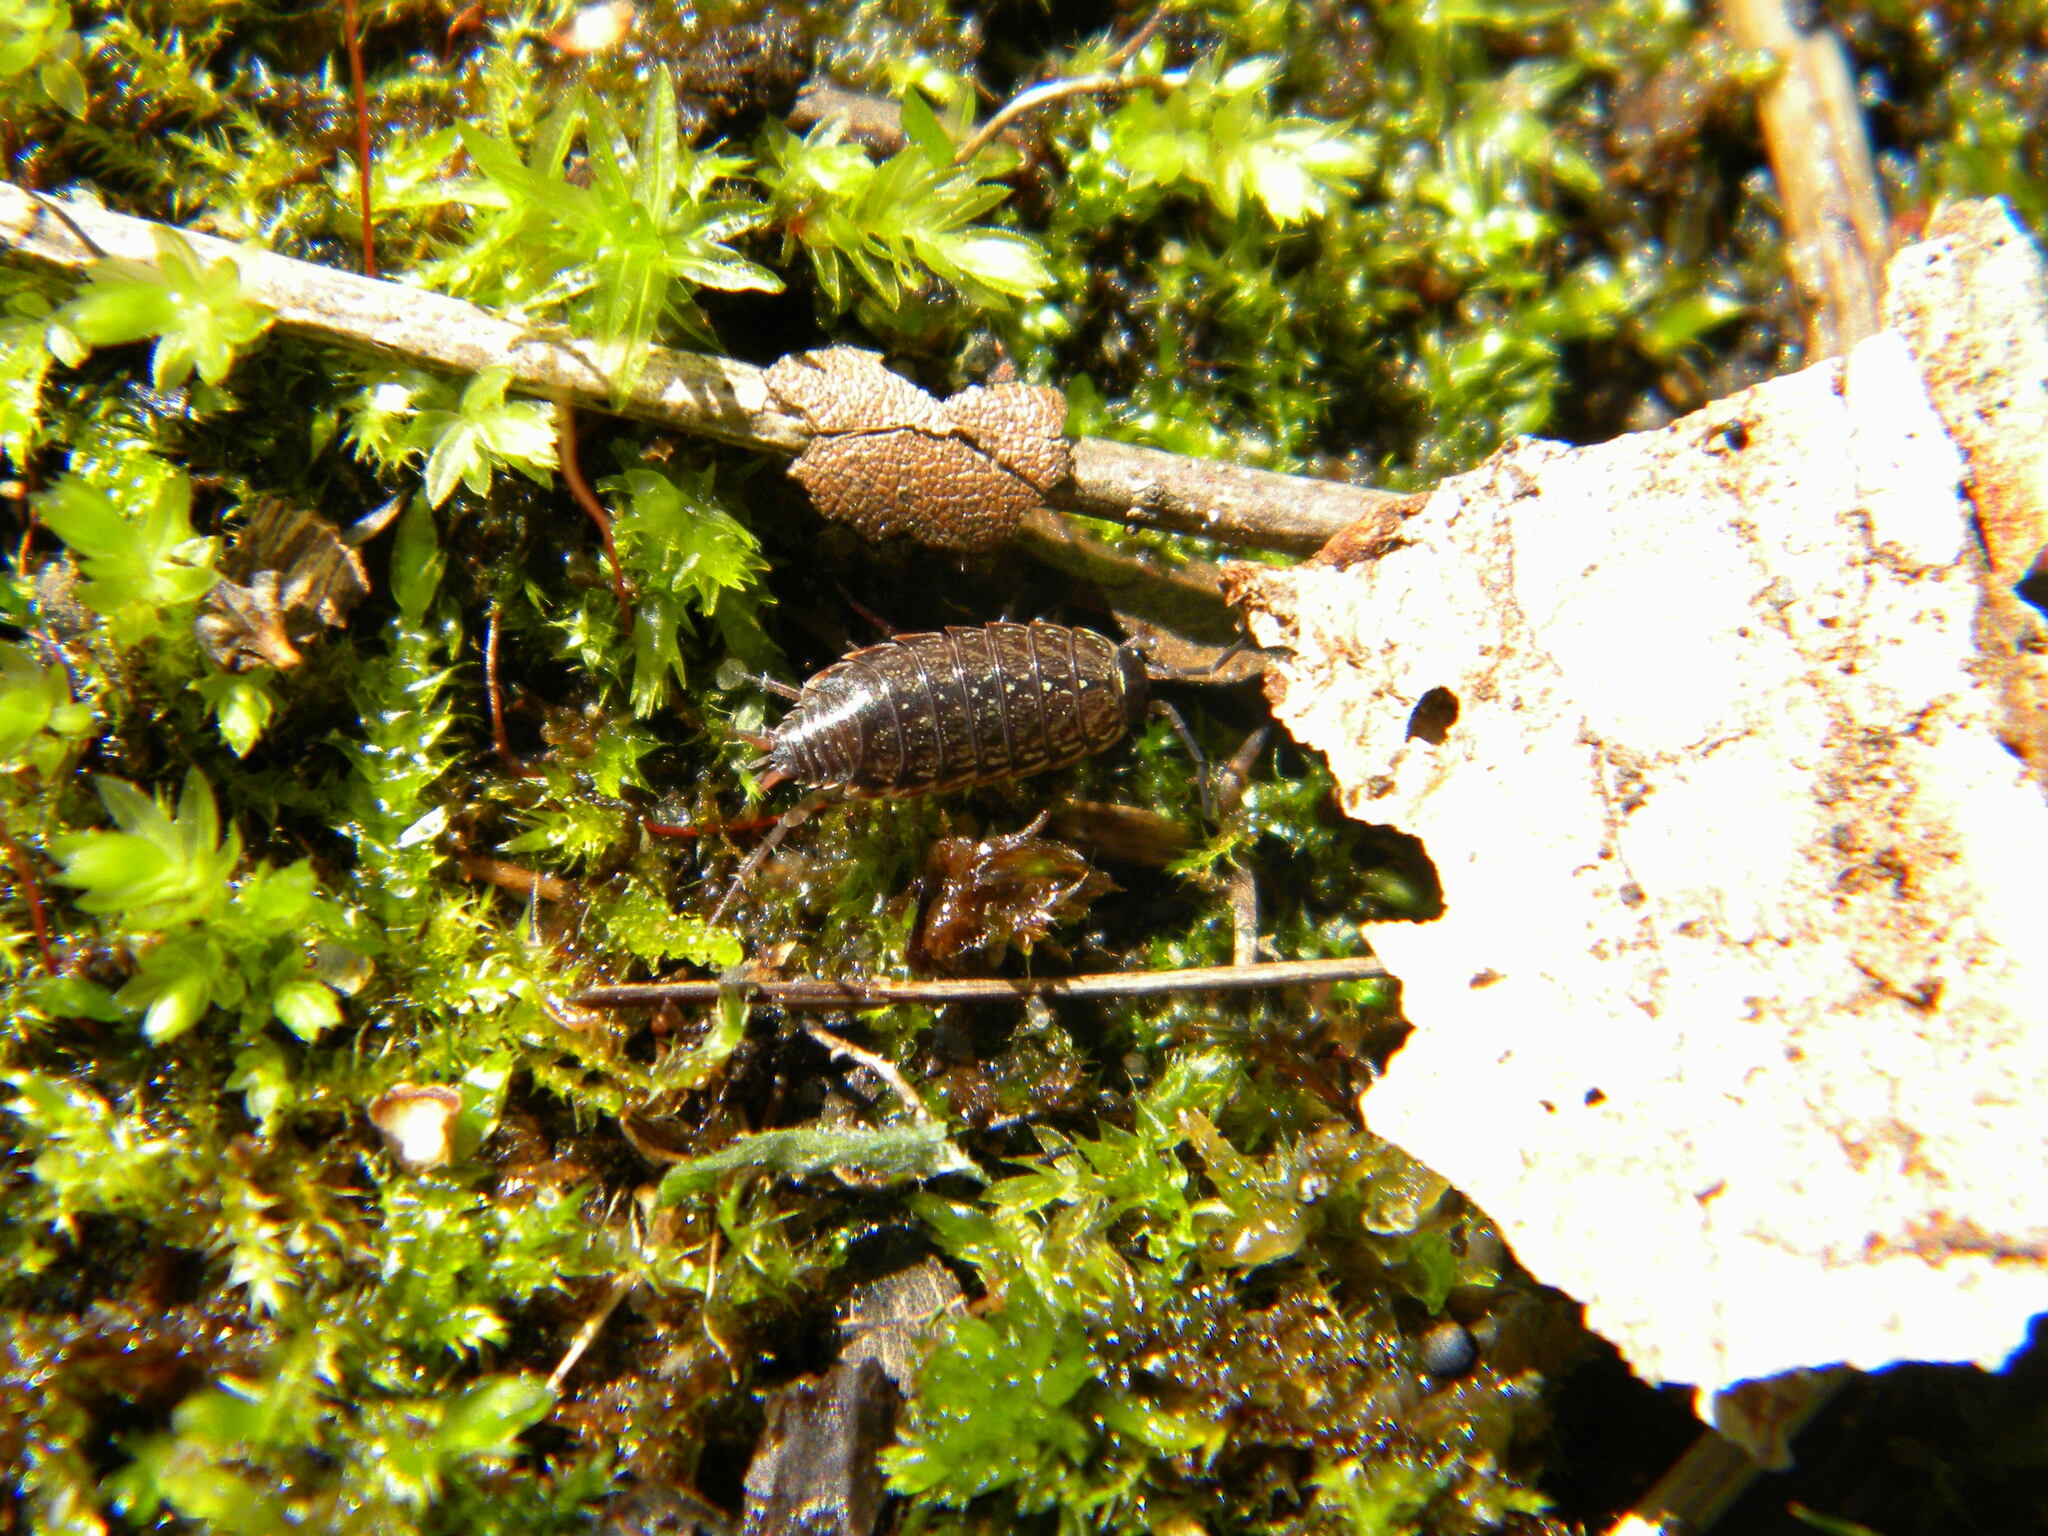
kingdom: Animalia
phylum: Arthropoda
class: Malacostraca
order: Isopoda
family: Philosciidae
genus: Philoscia
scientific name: Philoscia muscorum
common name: Common striped woodlouse
